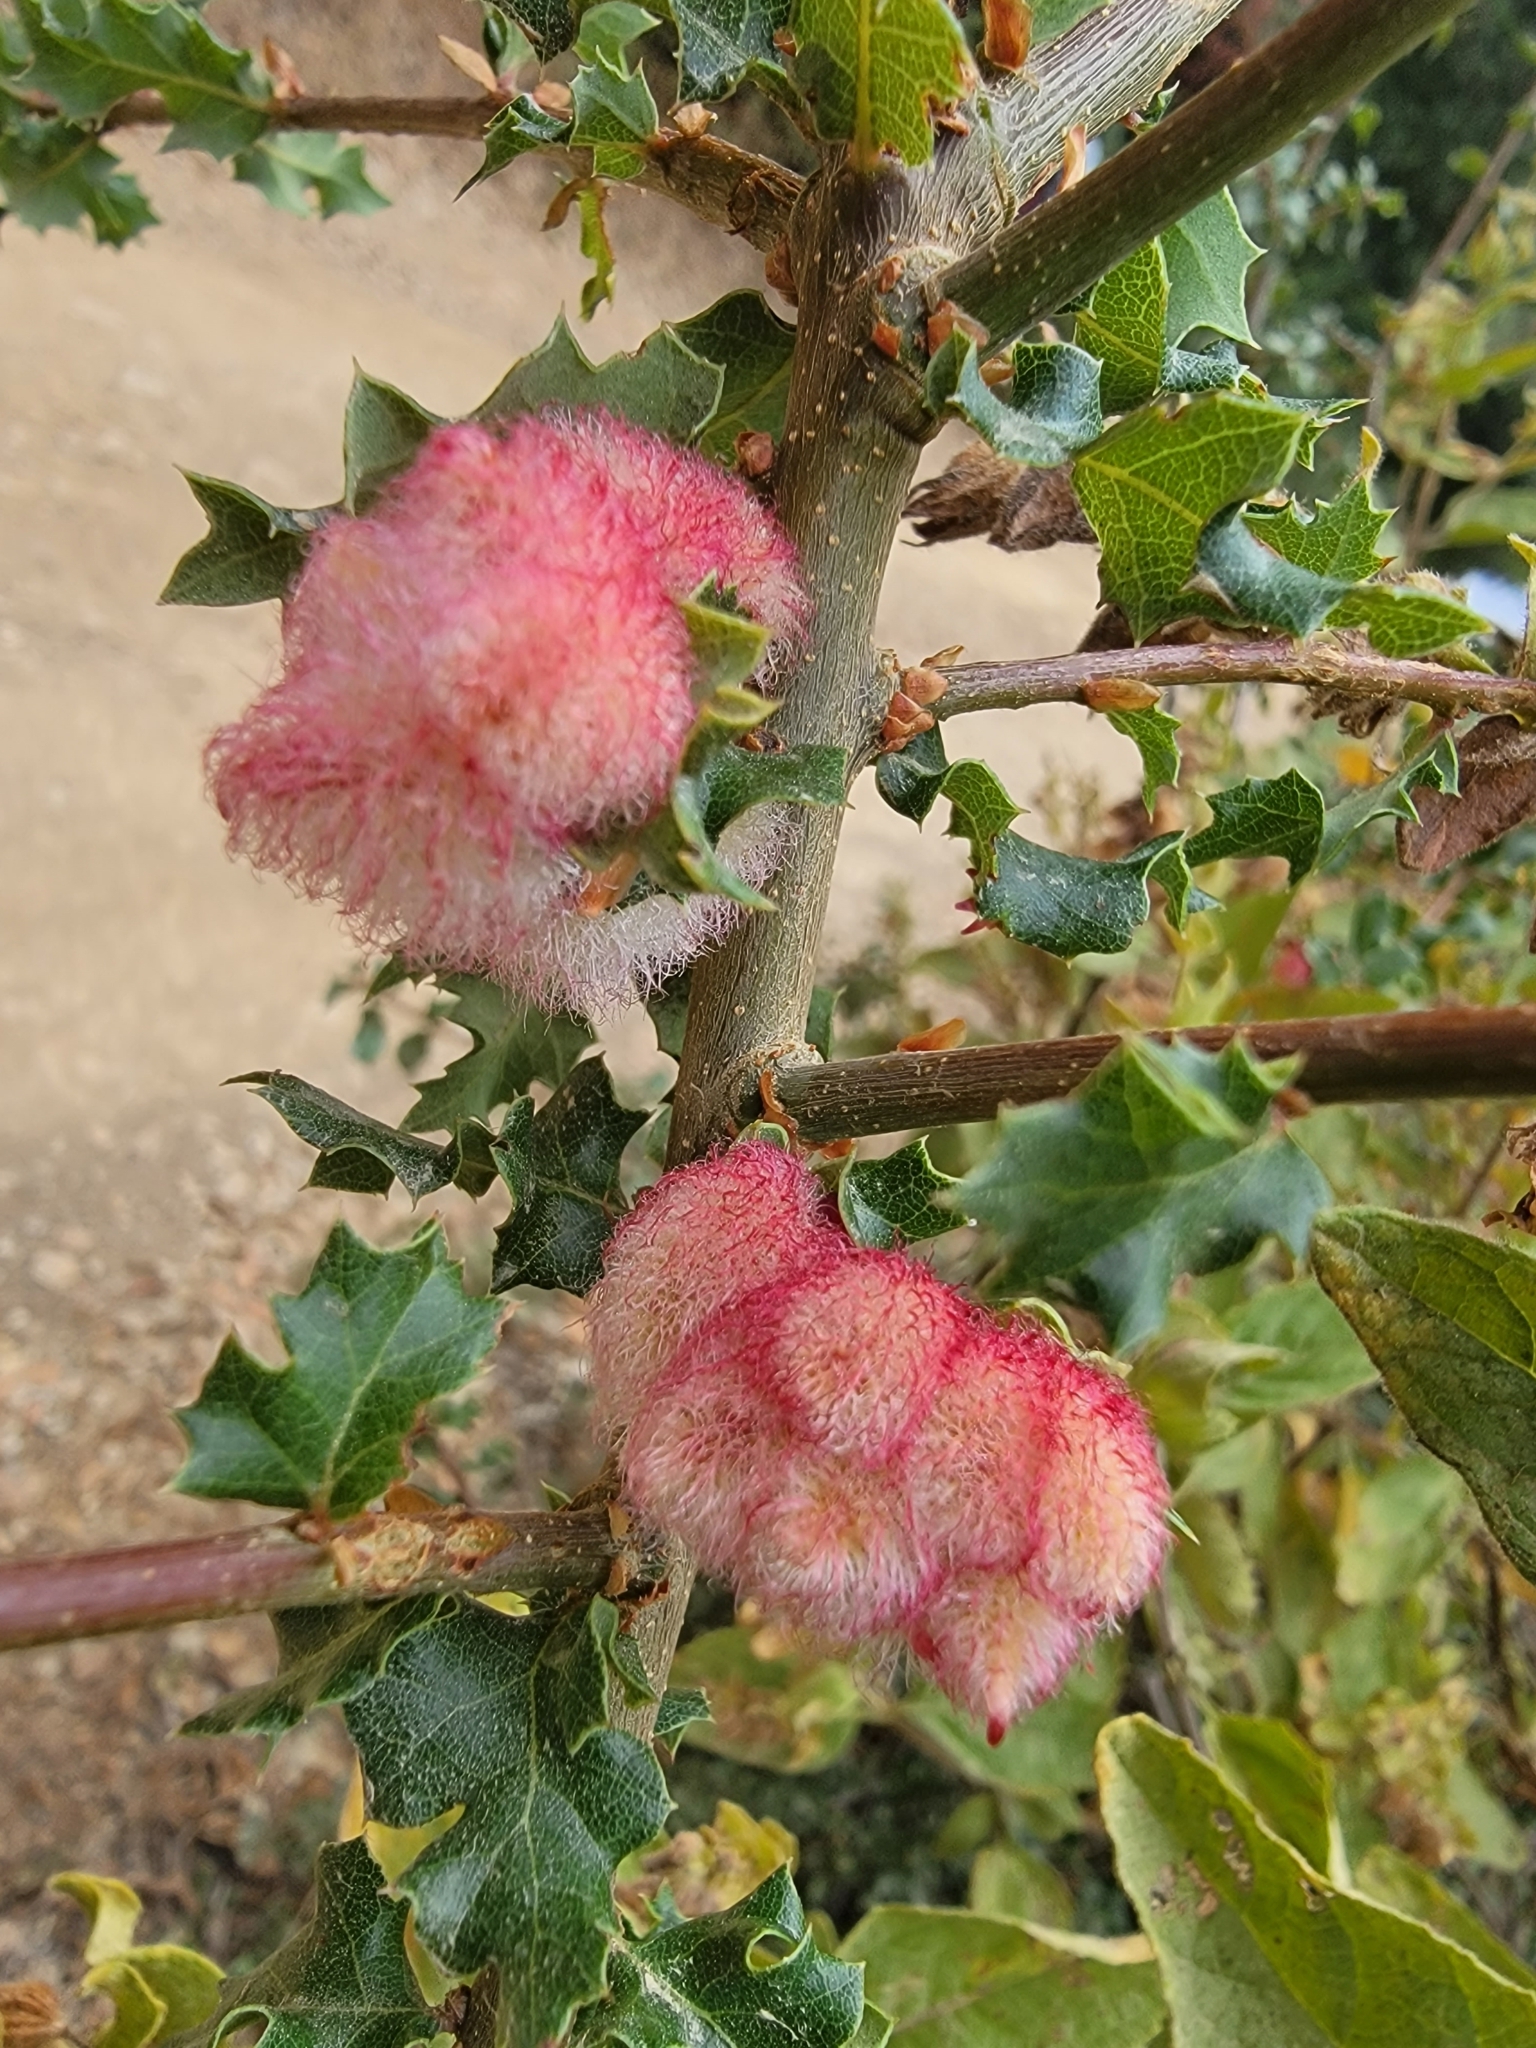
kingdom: Animalia
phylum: Arthropoda
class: Insecta
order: Hymenoptera
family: Cynipidae
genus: Andricus
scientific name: Andricus
